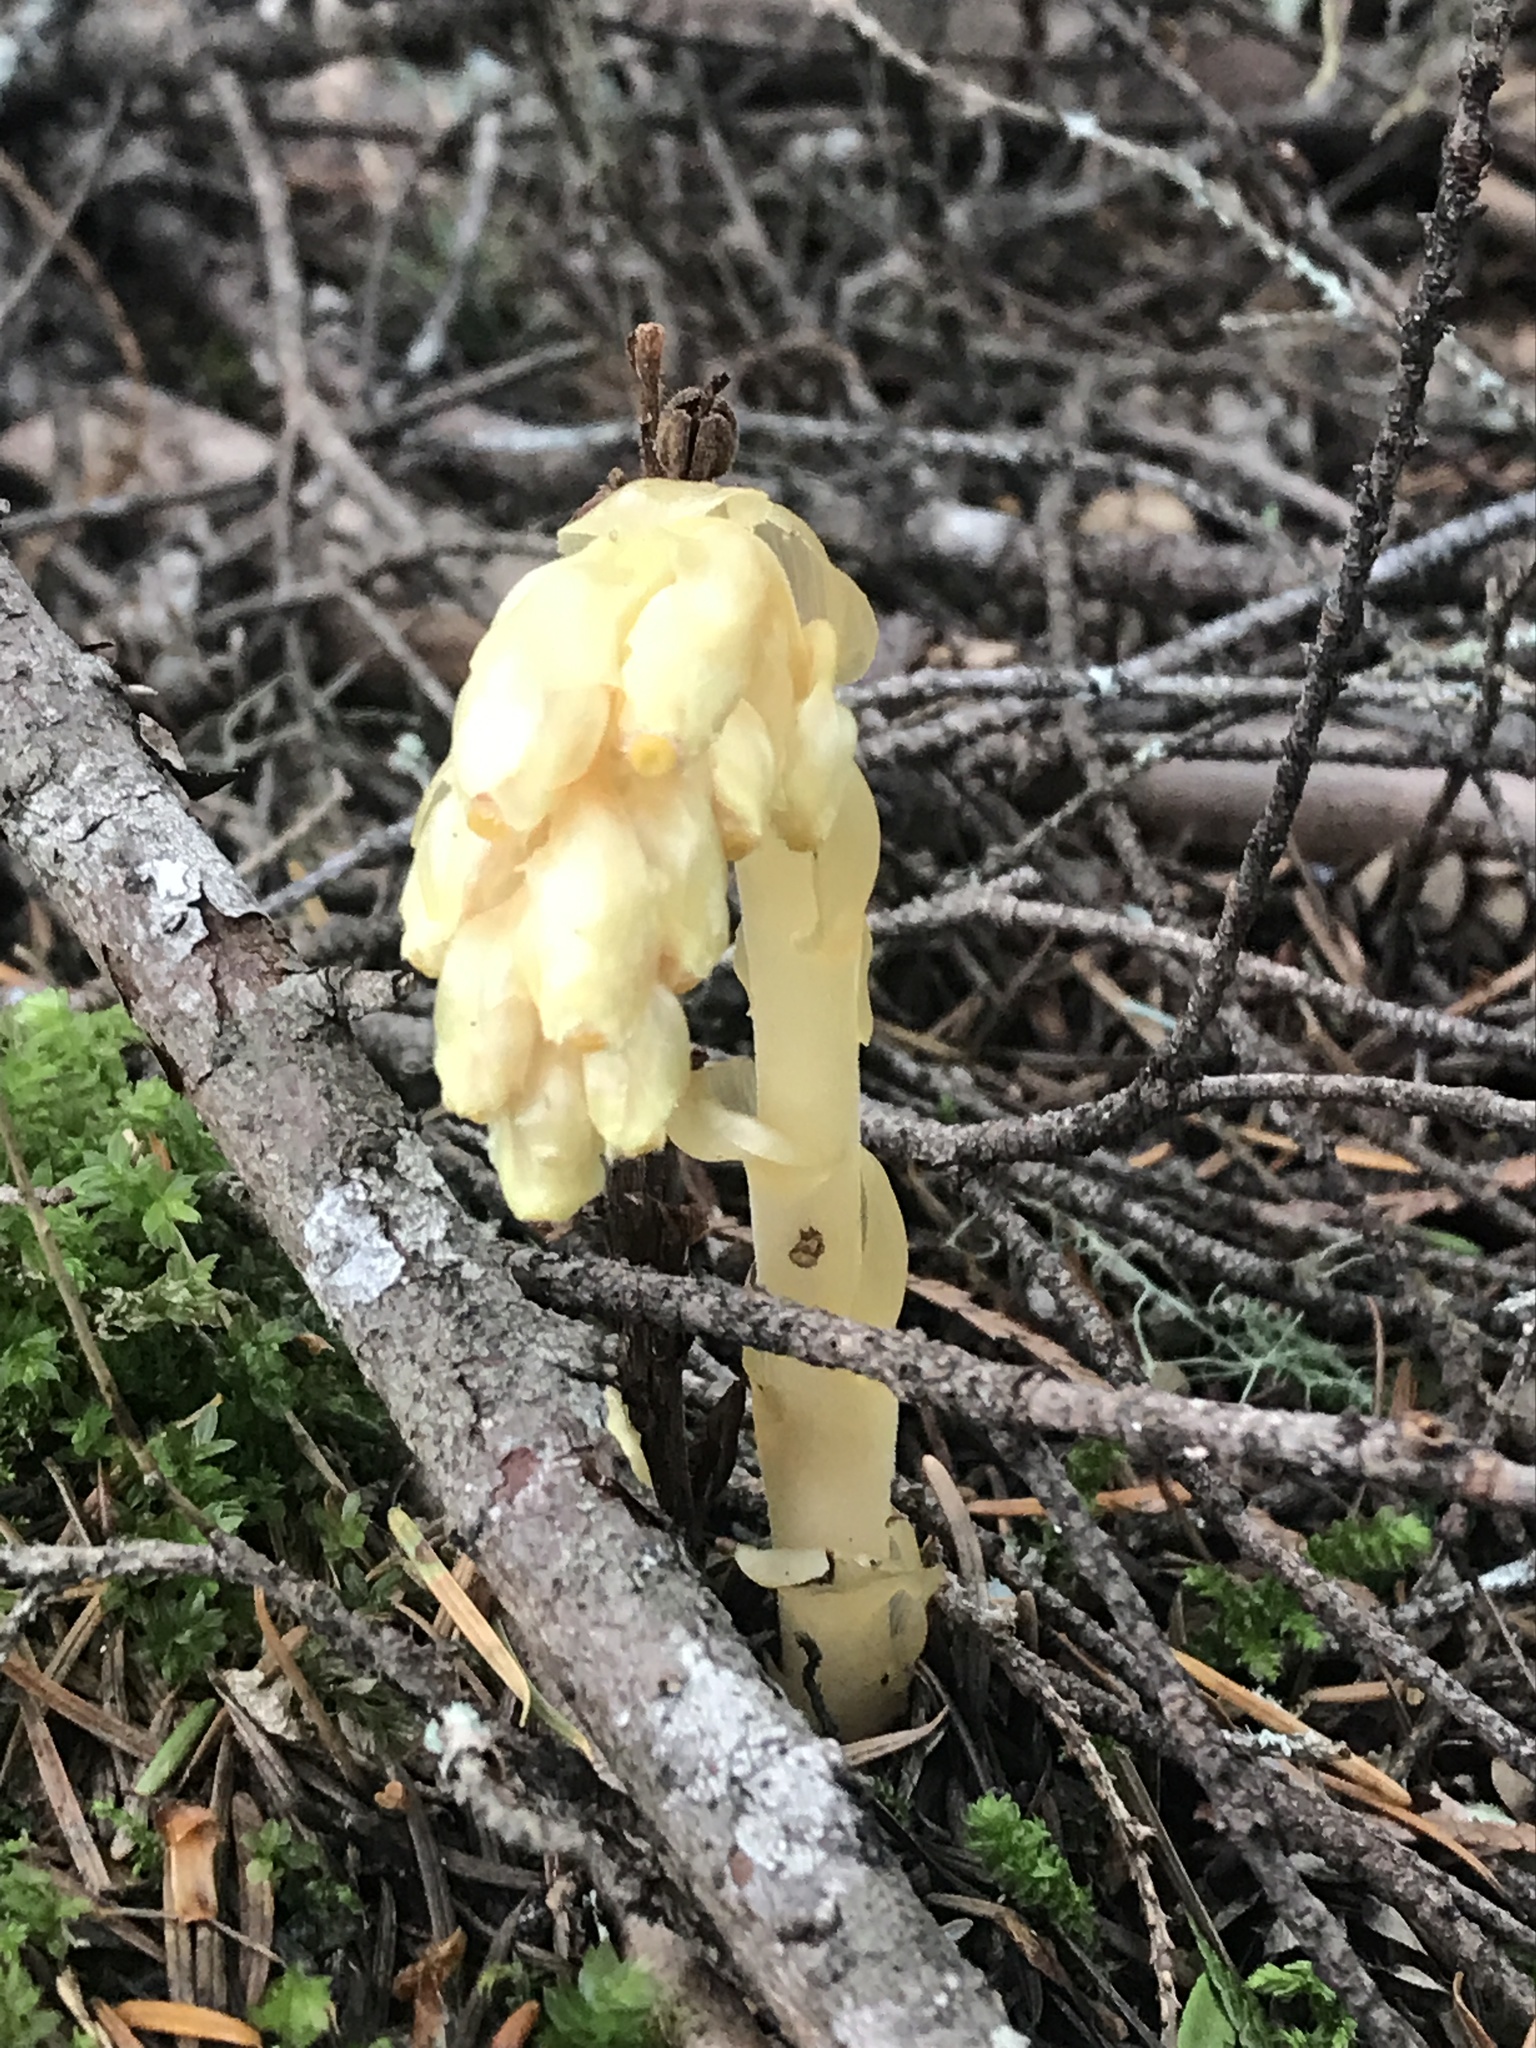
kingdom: Plantae
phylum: Tracheophyta
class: Magnoliopsida
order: Ericales
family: Ericaceae
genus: Hypopitys
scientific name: Hypopitys monotropa
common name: Yellow bird's-nest
